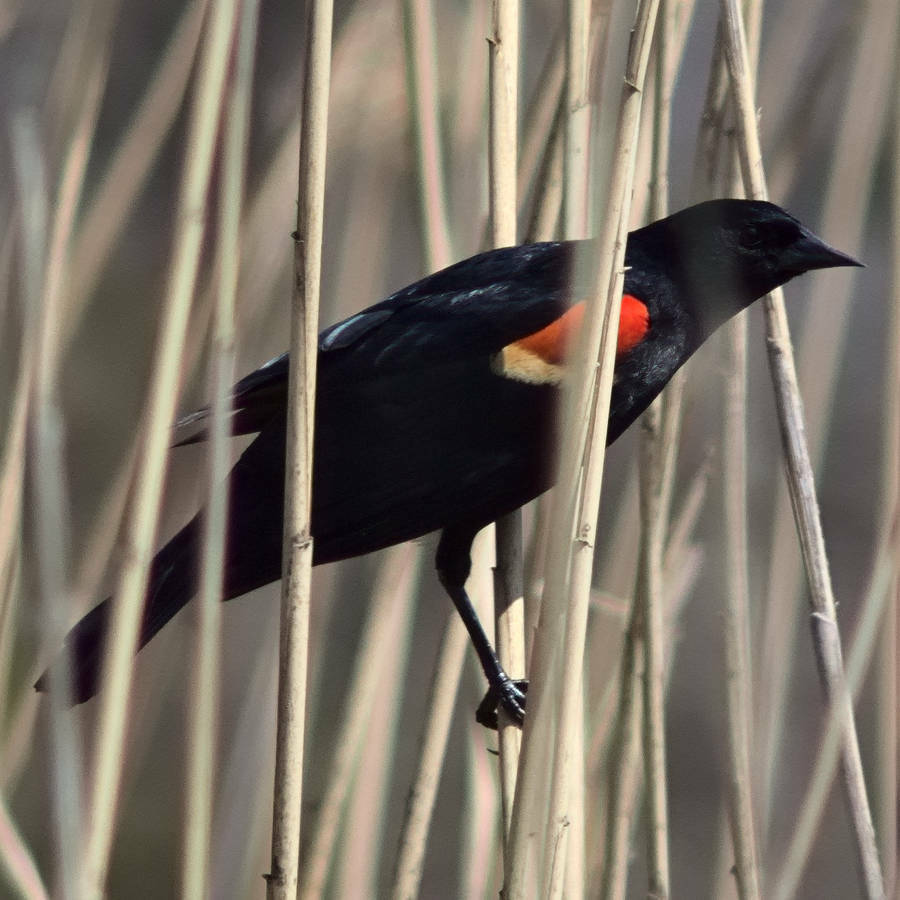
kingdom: Animalia
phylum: Chordata
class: Aves
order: Passeriformes
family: Icteridae
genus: Agelaius
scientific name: Agelaius phoeniceus
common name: Red-winged blackbird
